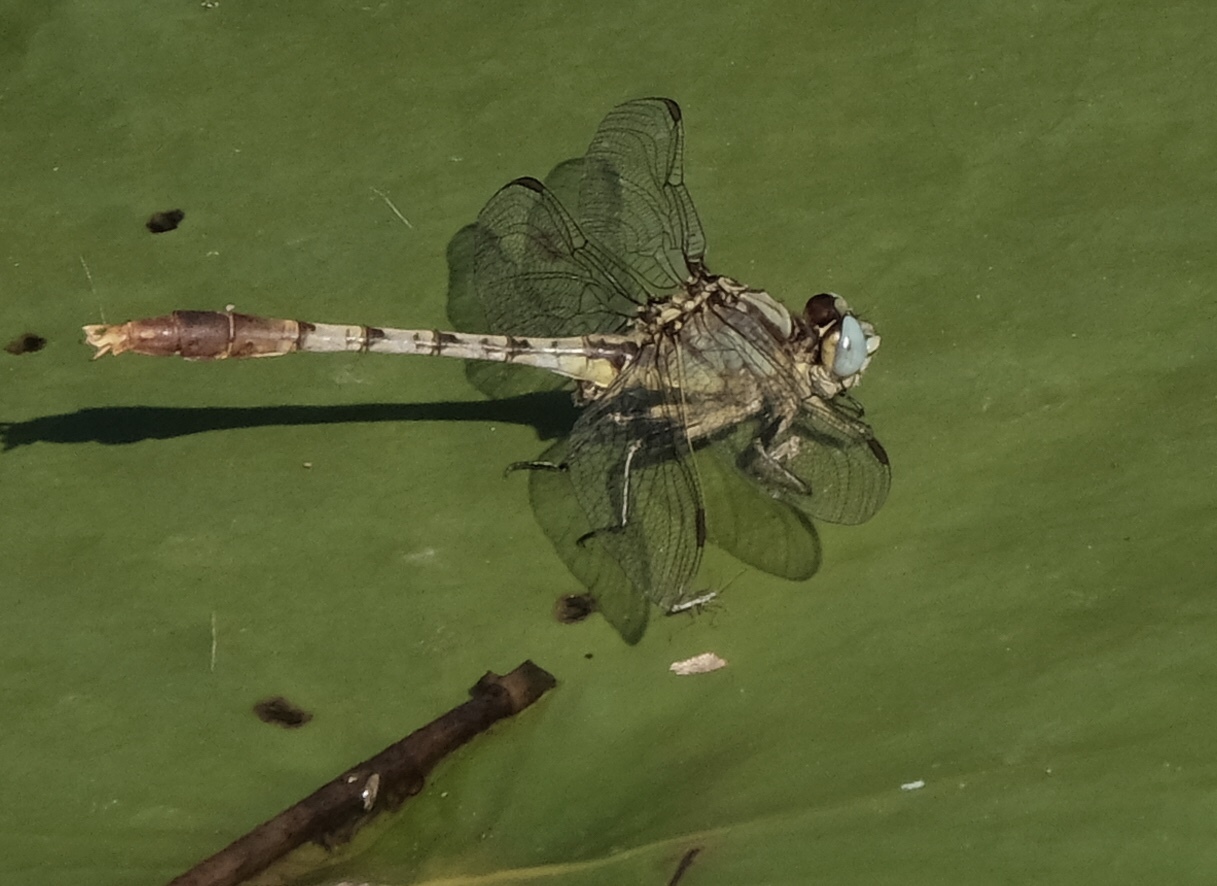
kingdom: Animalia
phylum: Arthropoda
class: Insecta
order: Odonata
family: Gomphidae
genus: Arigomphus
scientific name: Arigomphus lentulus
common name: Stillwater clubtail
